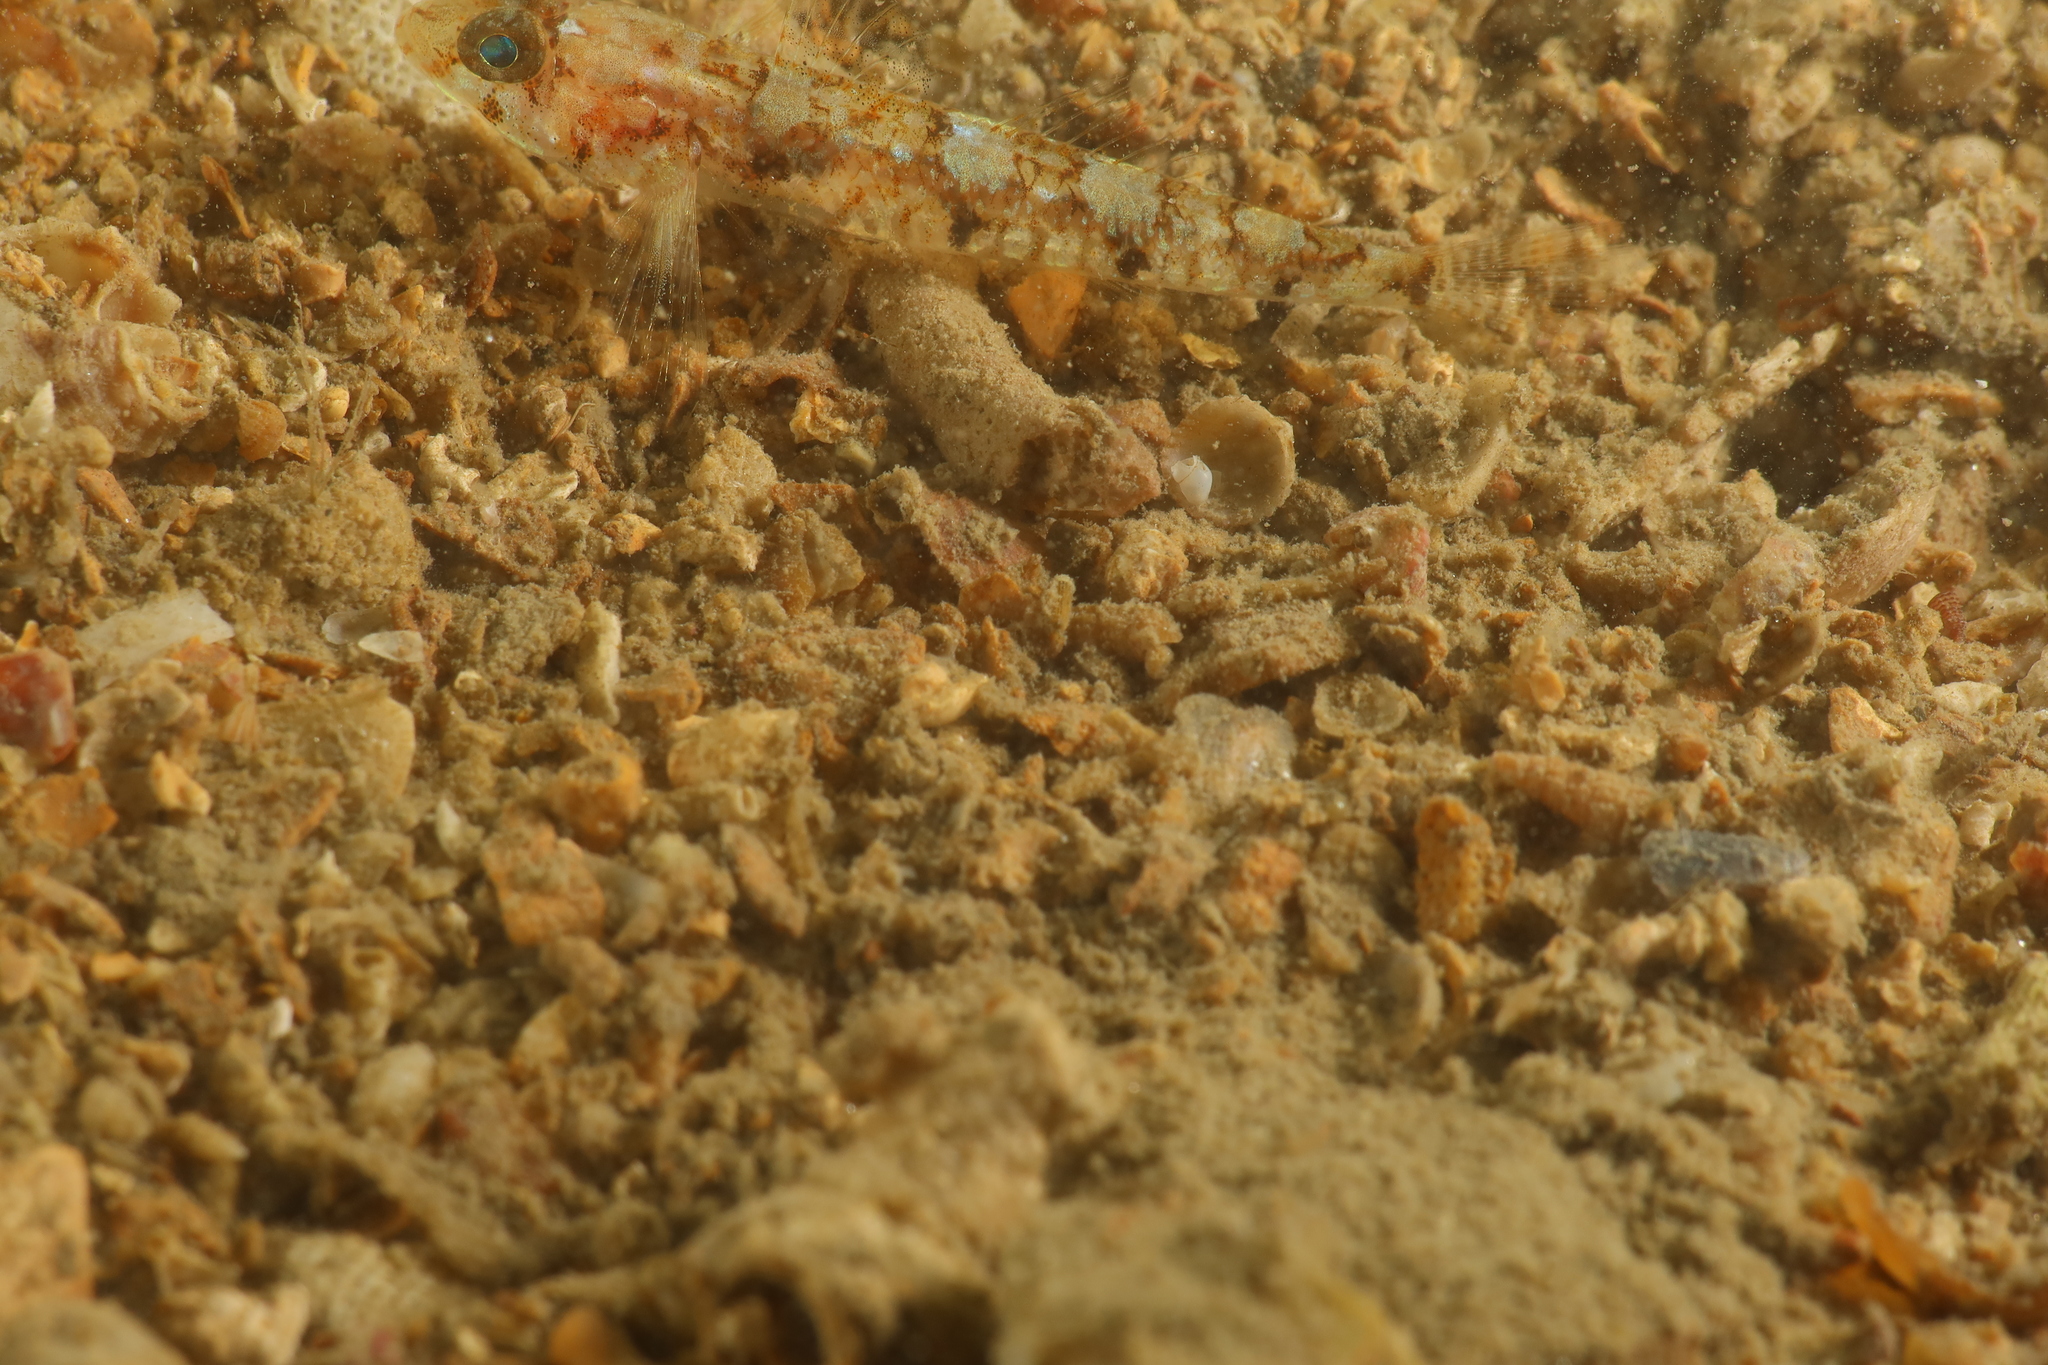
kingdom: Animalia
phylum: Chordata
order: Perciformes
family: Gobiidae
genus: Buenia
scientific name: Buenia affinis
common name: De buen's goby
